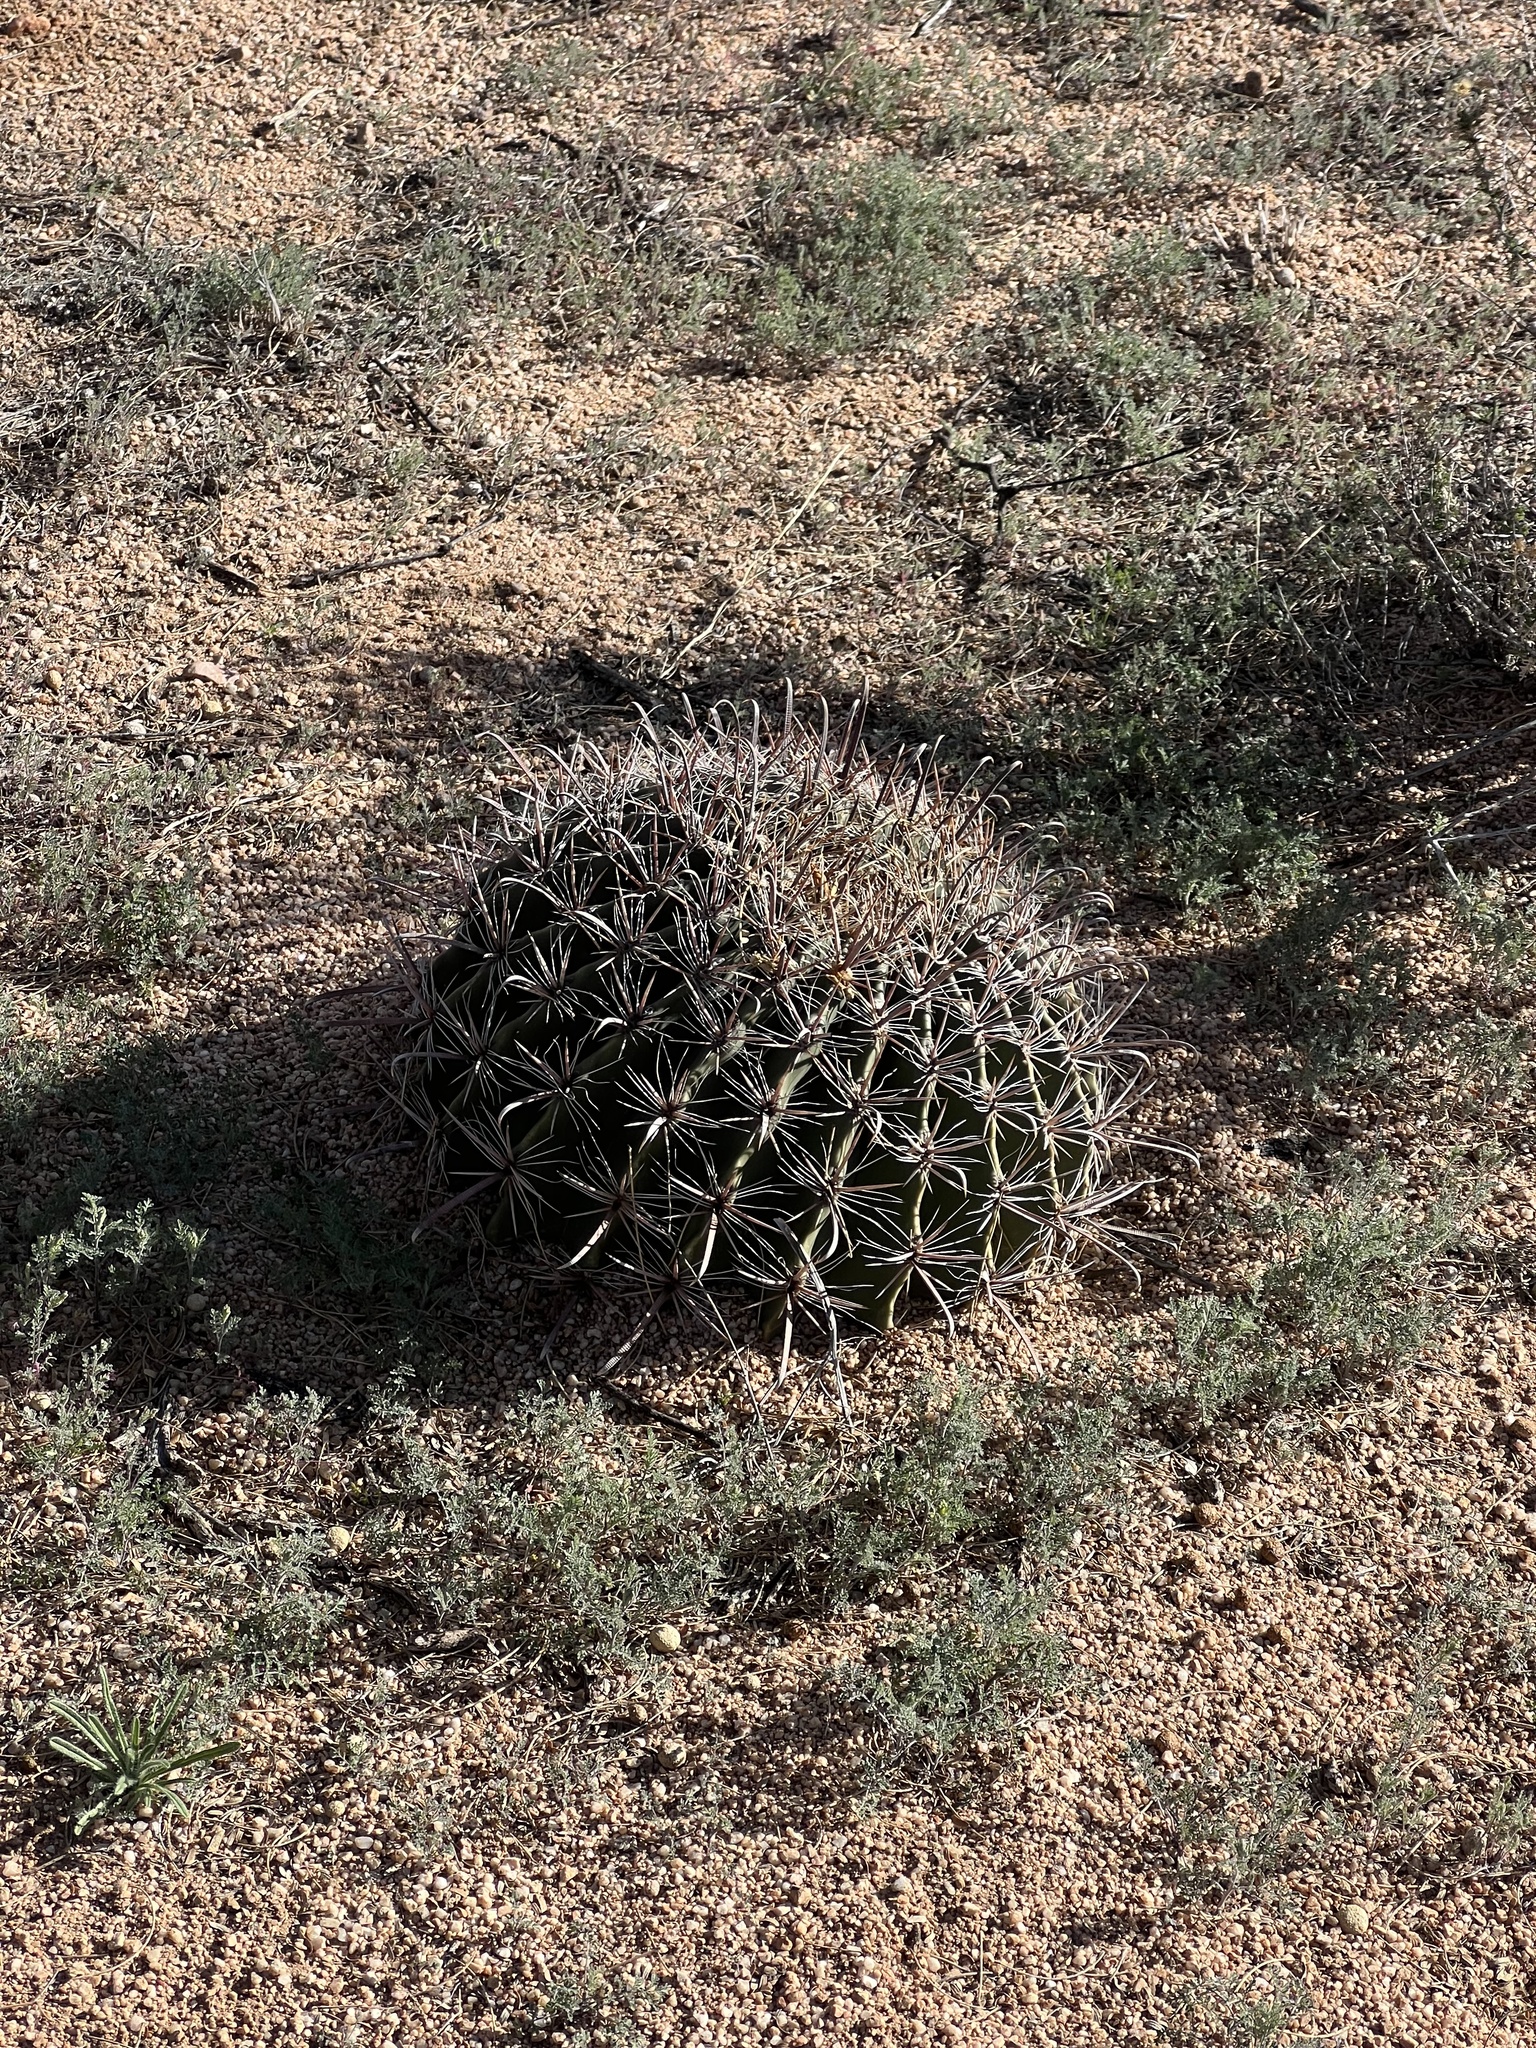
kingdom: Plantae
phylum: Tracheophyta
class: Magnoliopsida
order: Caryophyllales
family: Cactaceae
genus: Ferocactus
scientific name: Ferocactus wislizeni
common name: Candy barrel cactus
